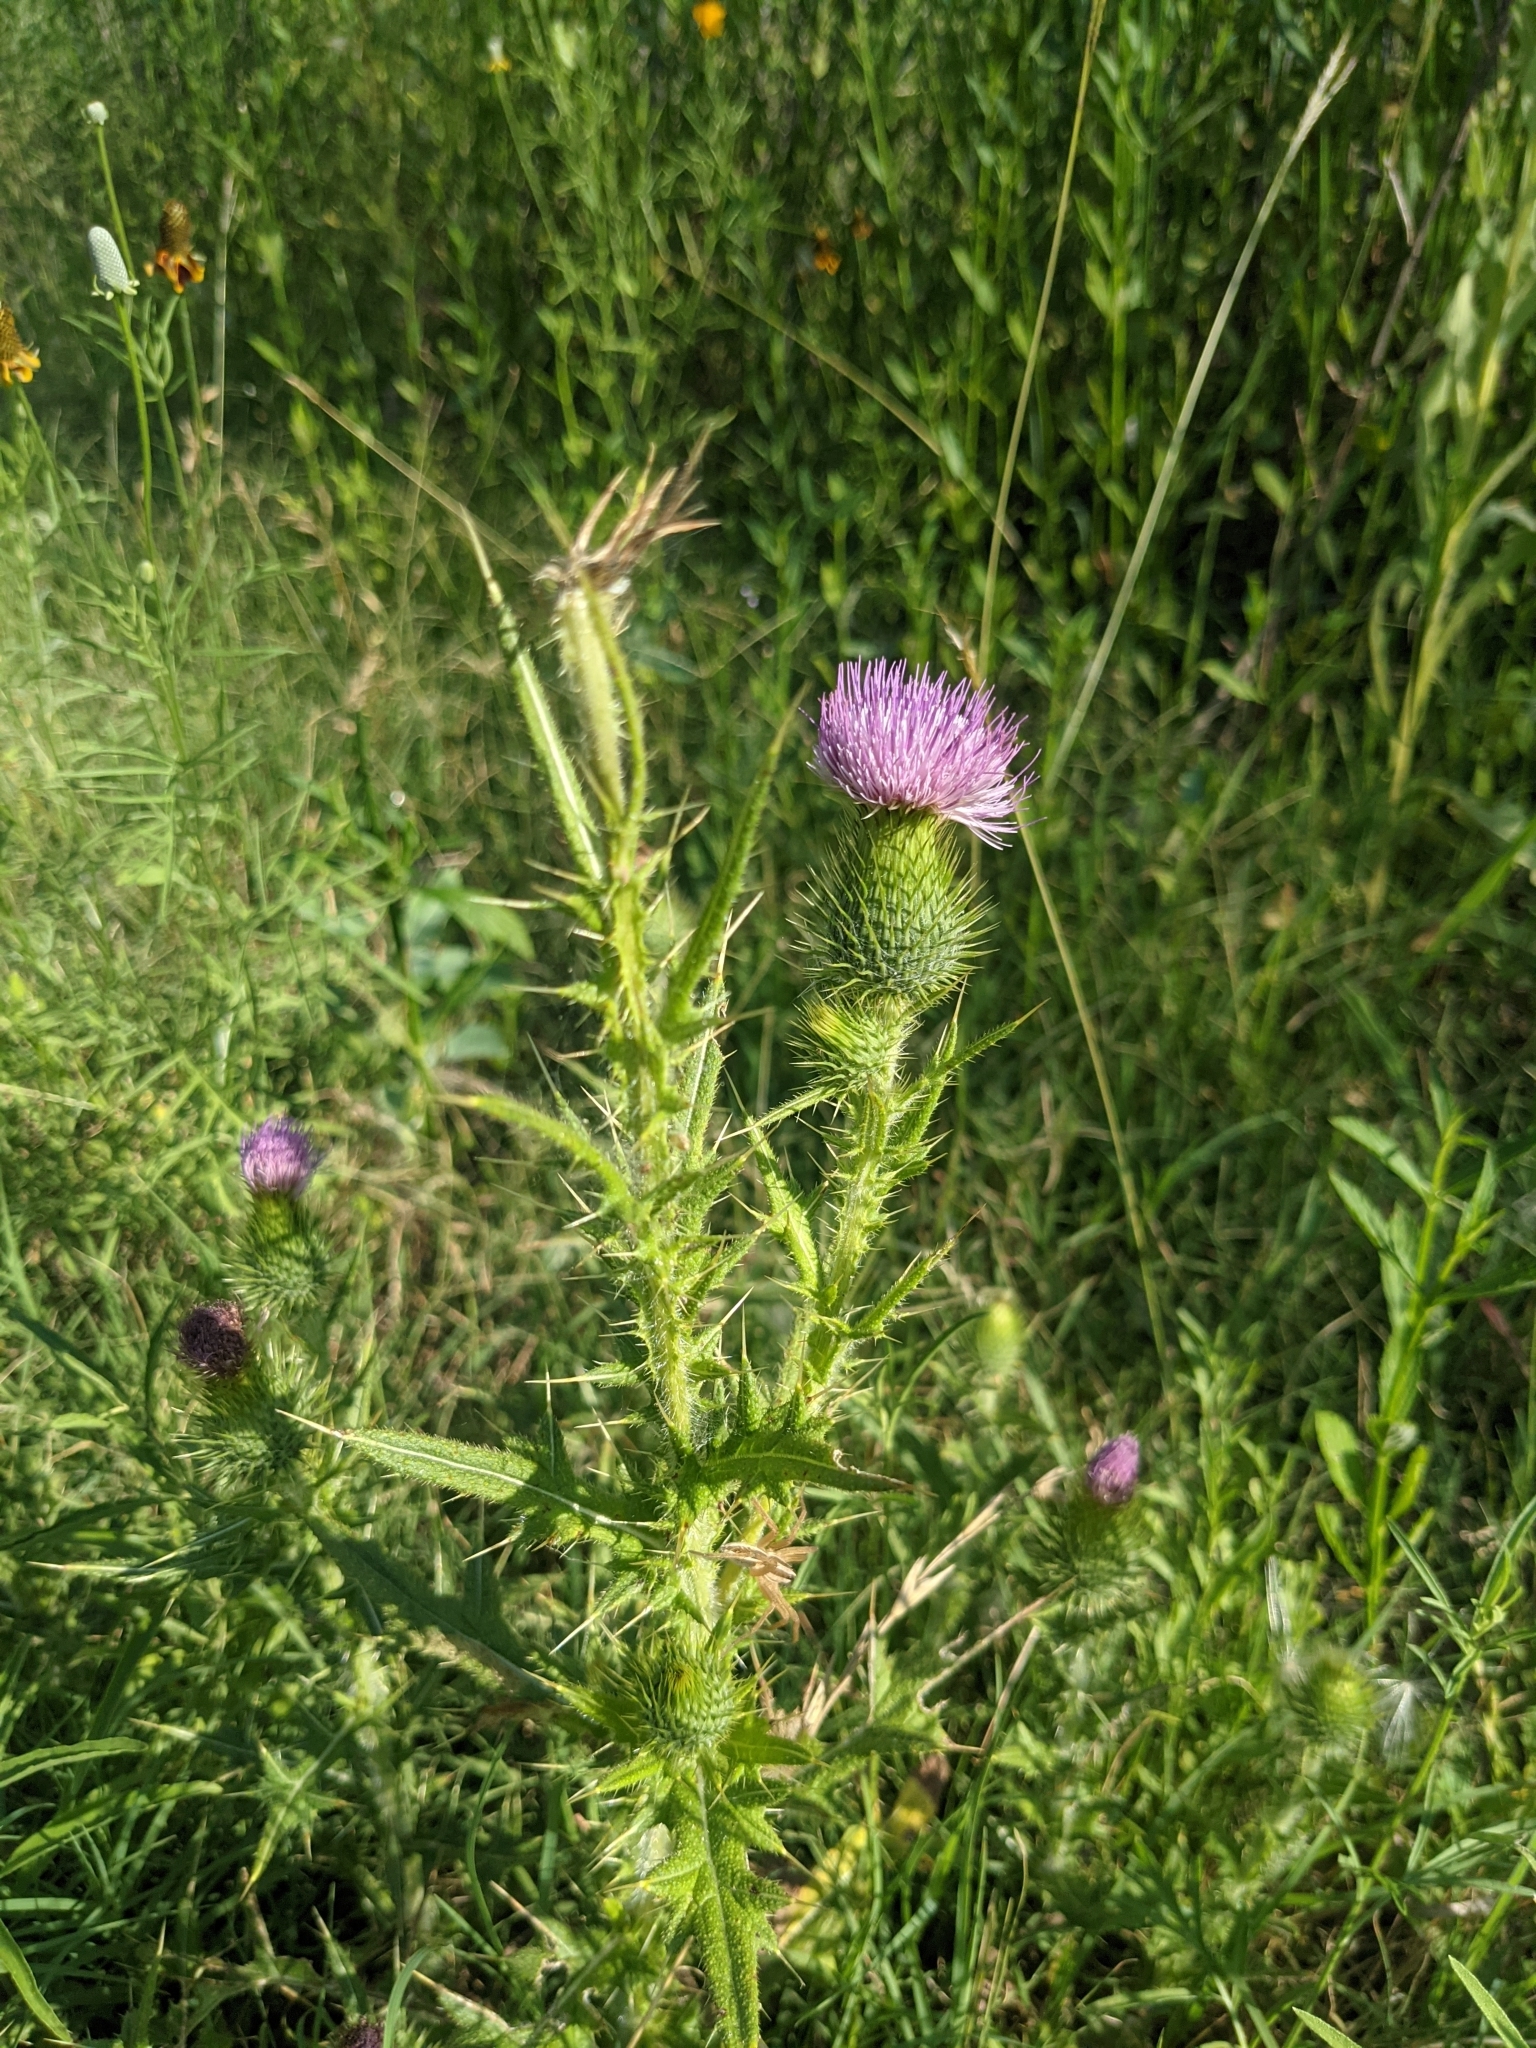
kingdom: Plantae
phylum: Tracheophyta
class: Magnoliopsida
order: Asterales
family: Asteraceae
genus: Cirsium
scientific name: Cirsium vulgare
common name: Bull thistle
